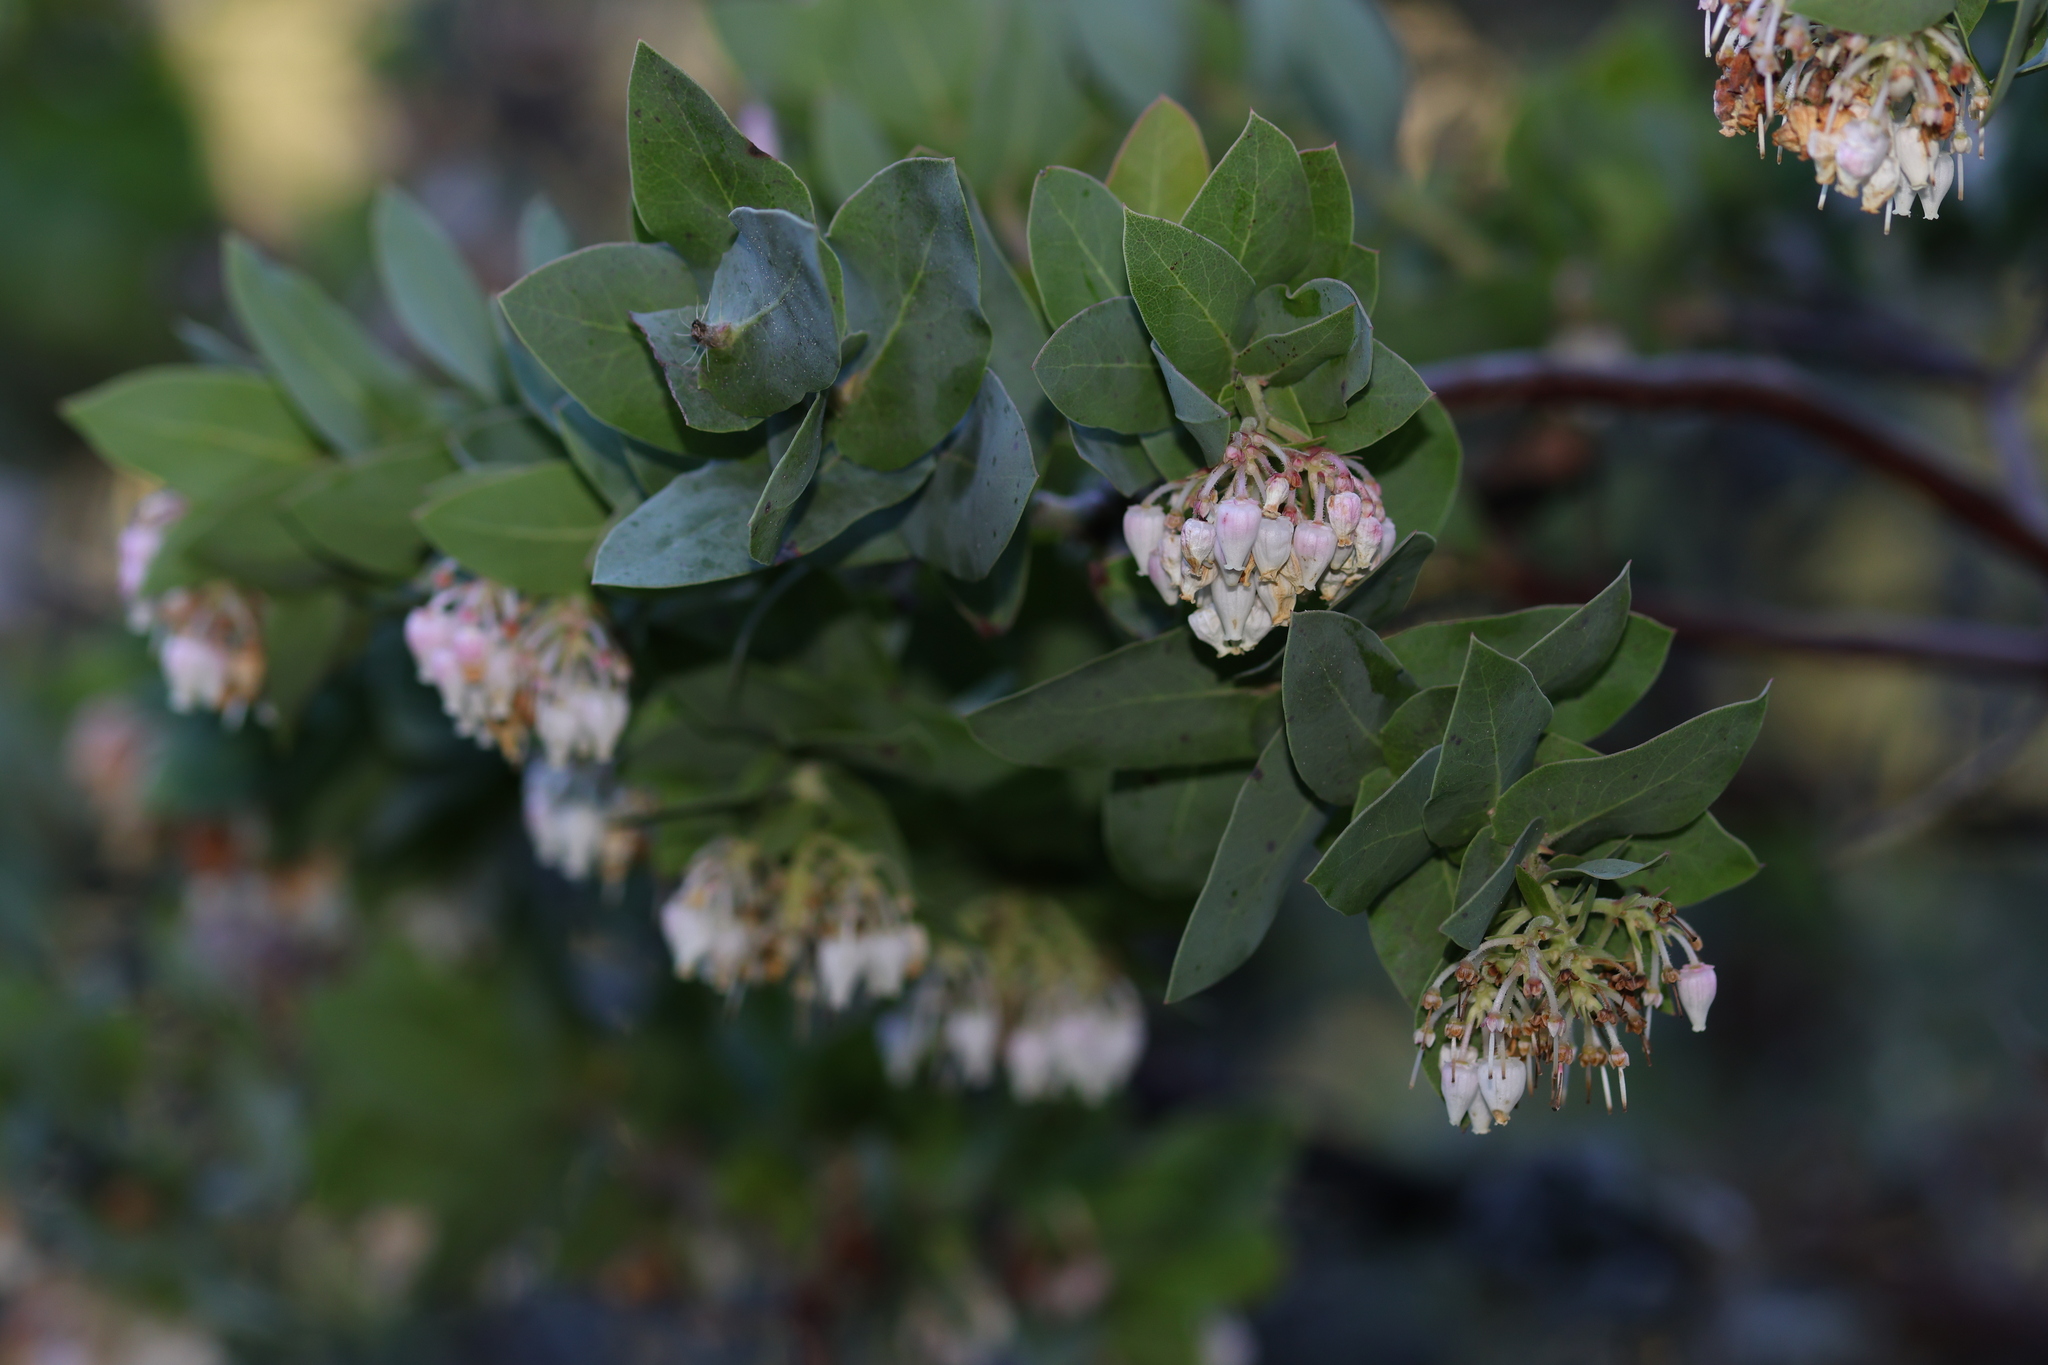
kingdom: Plantae
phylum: Tracheophyta
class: Magnoliopsida
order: Ericales
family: Ericaceae
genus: Arctostaphylos
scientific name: Arctostaphylos pallida
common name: Pallid manzanita
